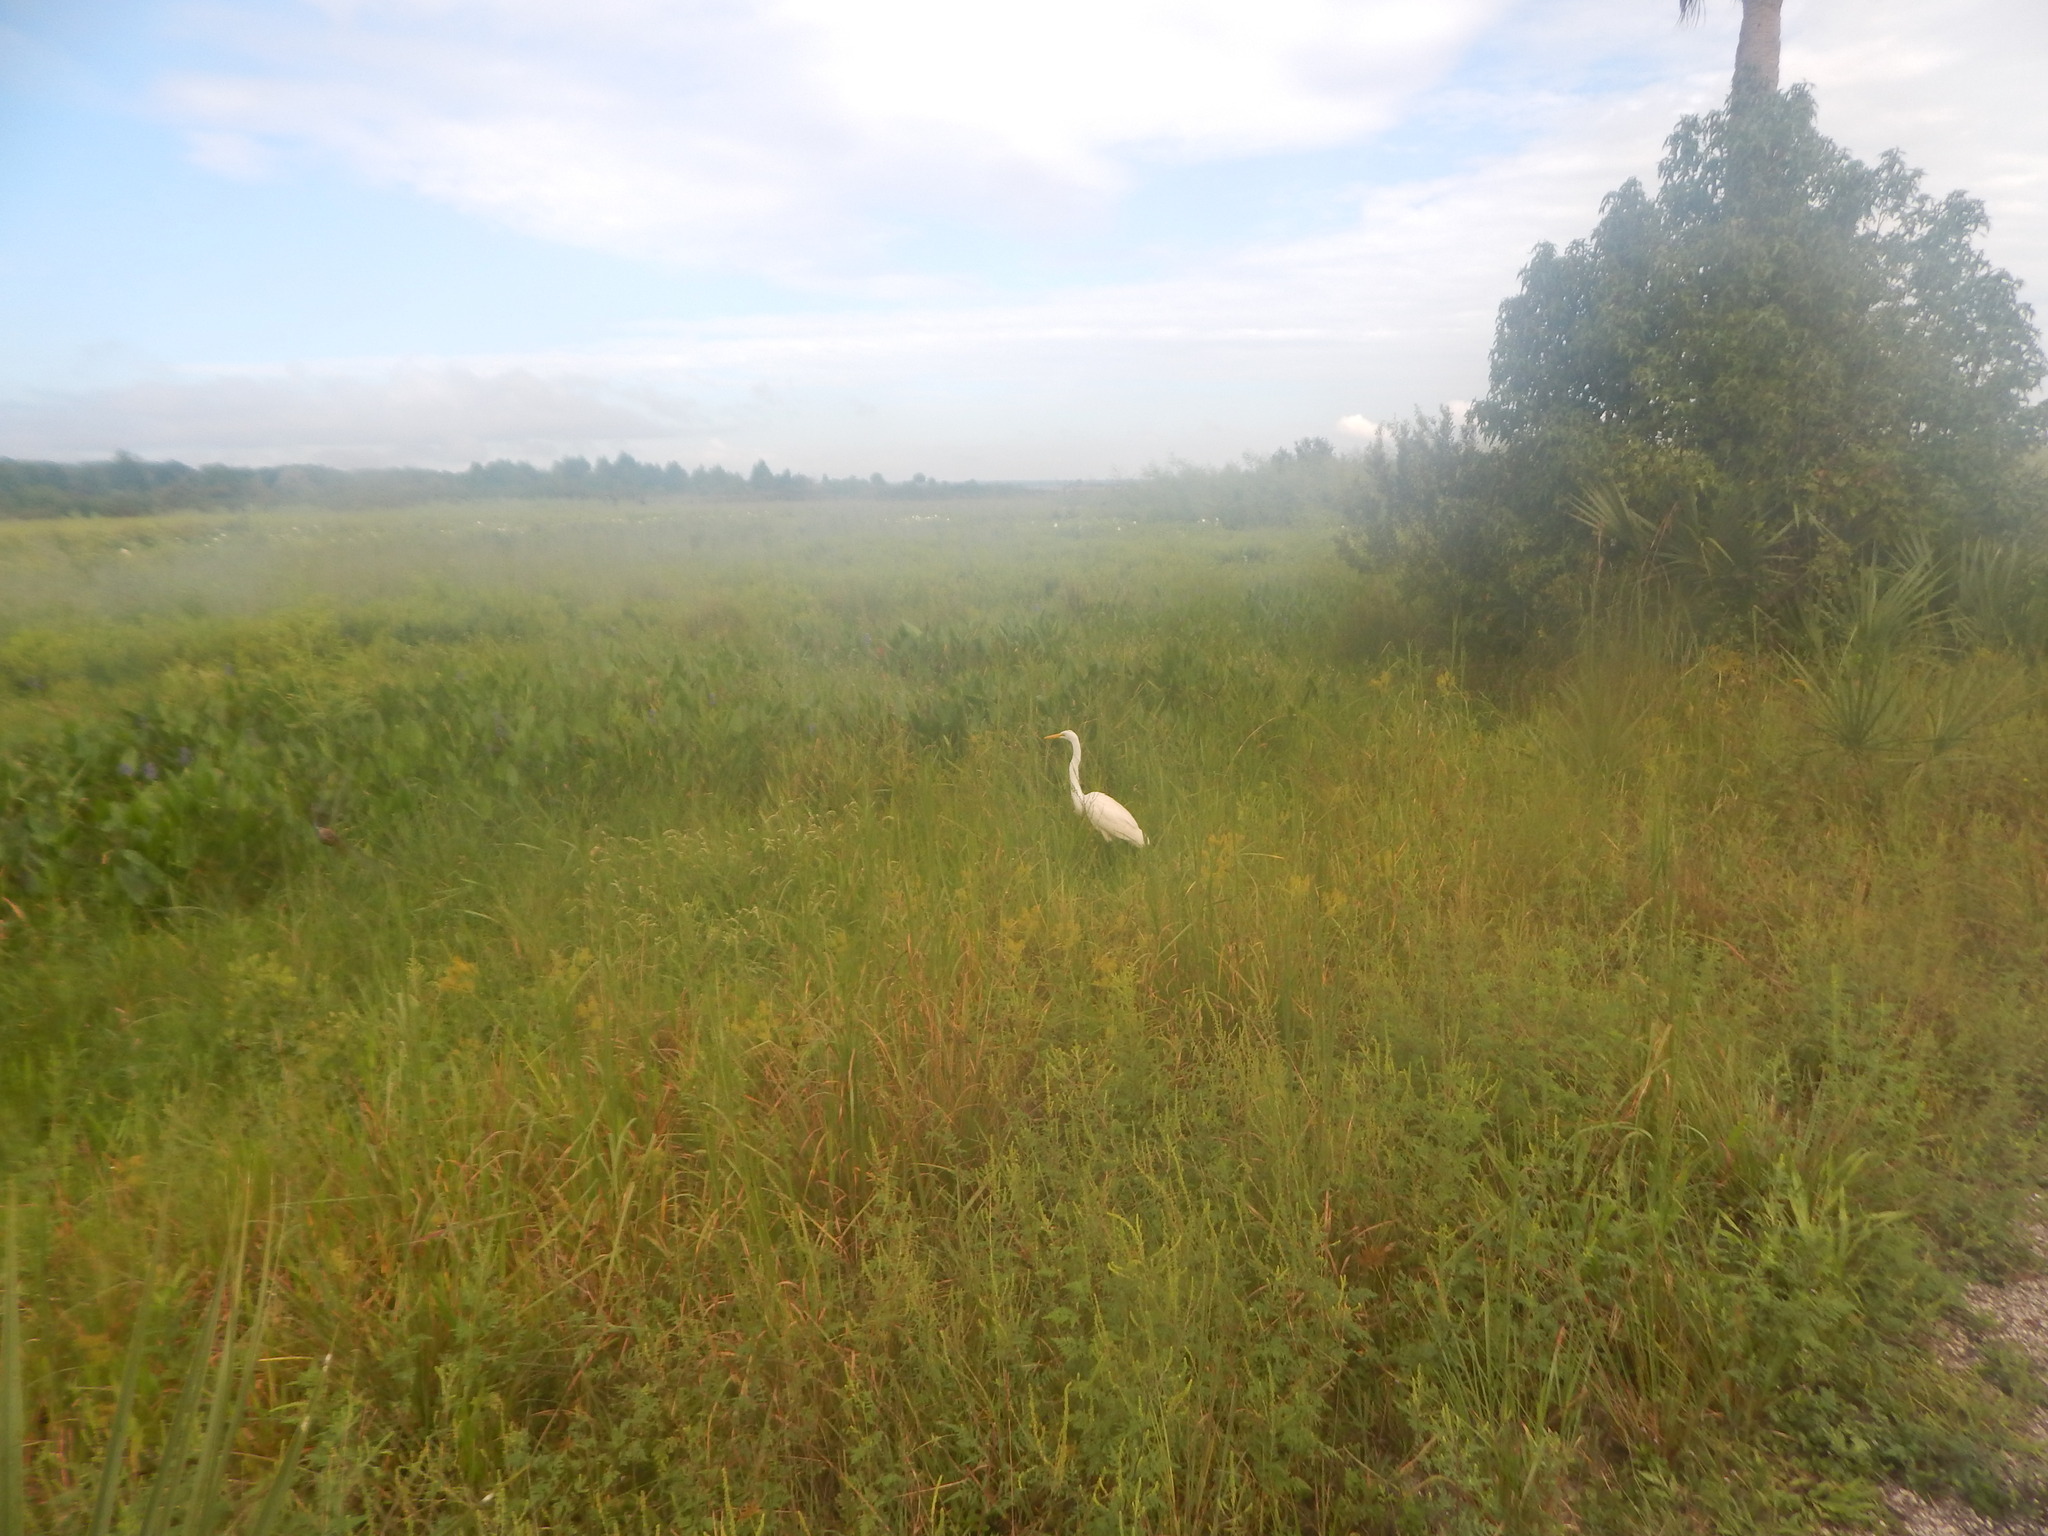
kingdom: Animalia
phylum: Chordata
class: Aves
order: Pelecaniformes
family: Ardeidae
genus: Ardea
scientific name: Ardea alba
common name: Great egret
